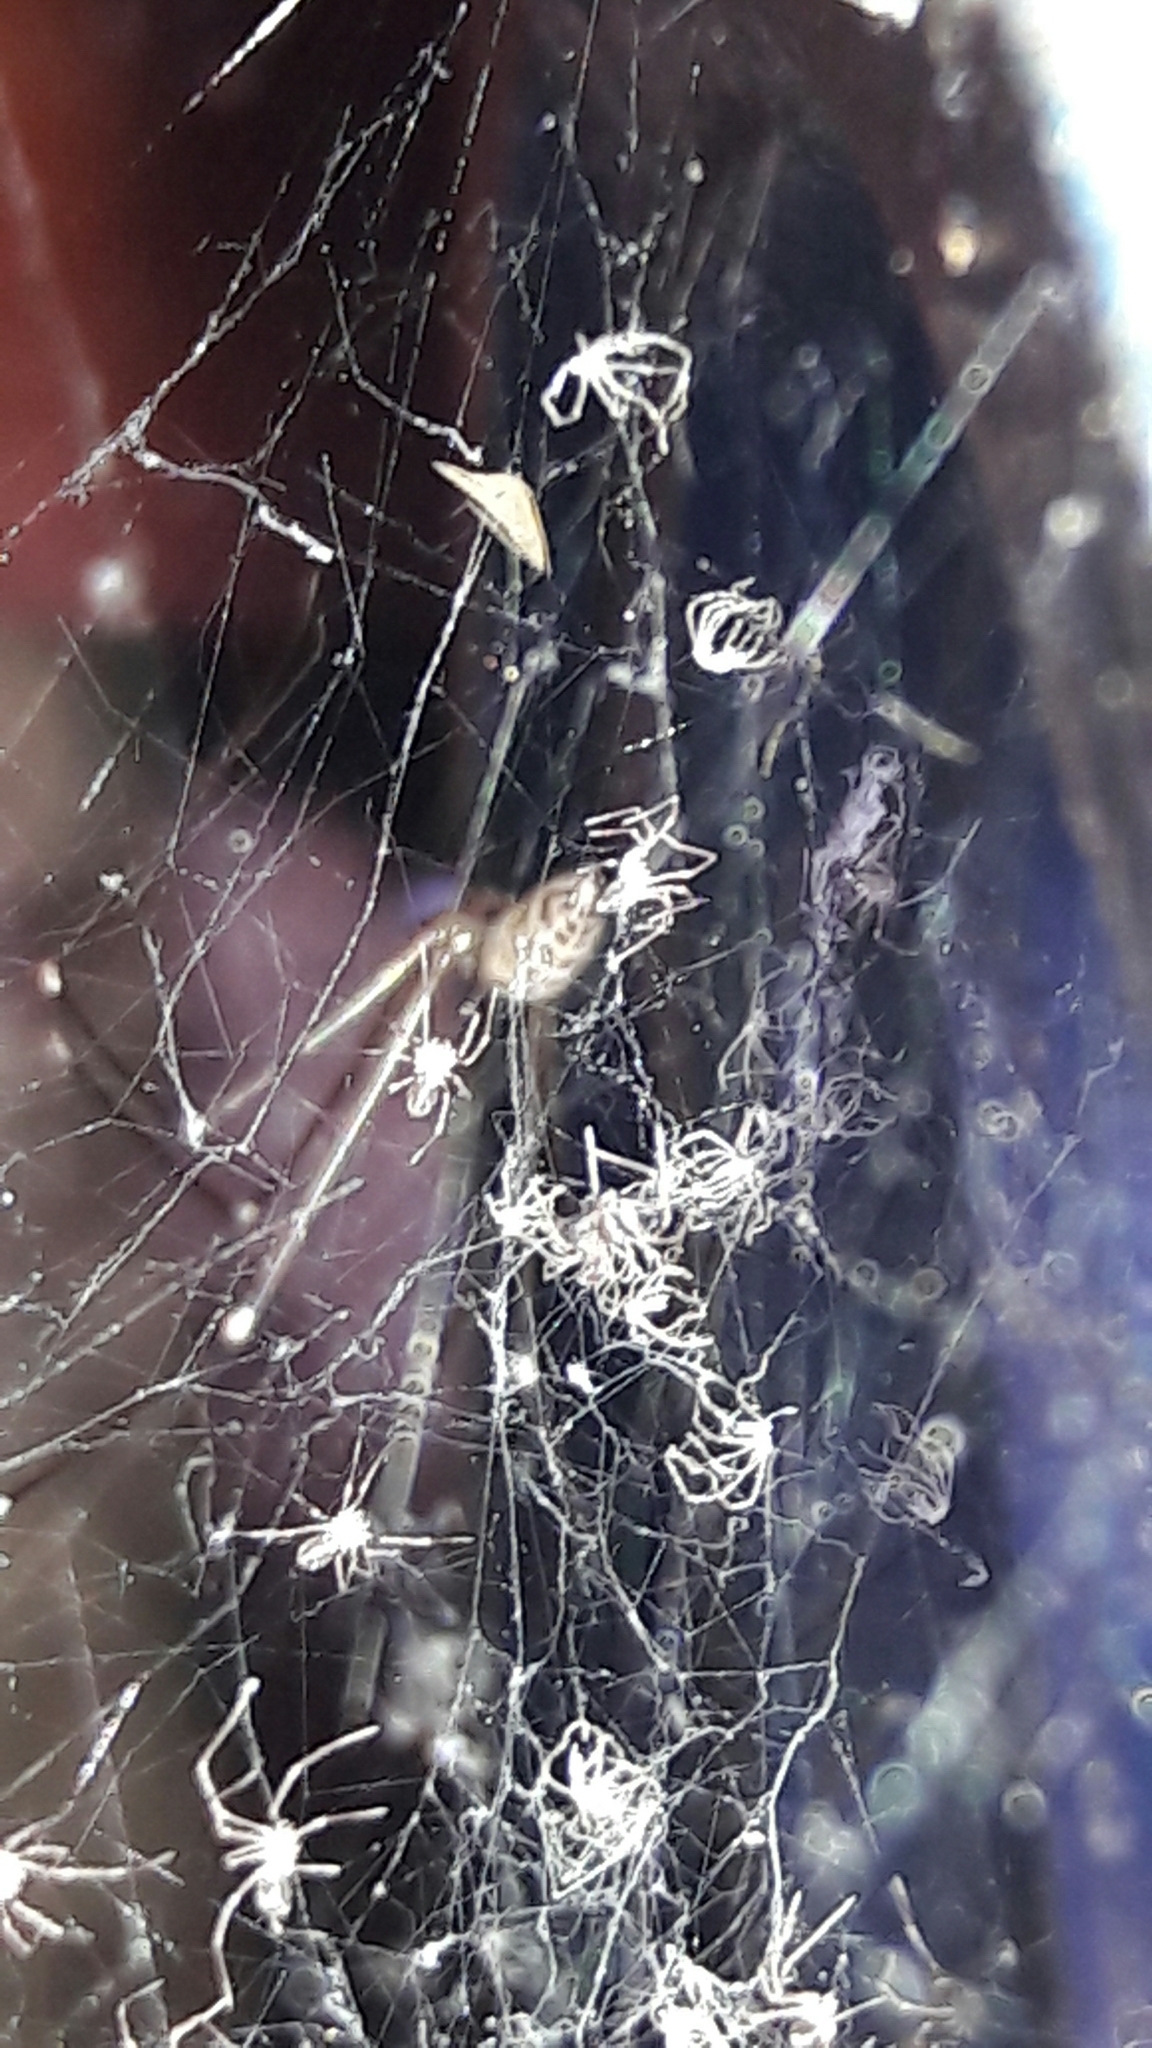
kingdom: Animalia
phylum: Arthropoda
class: Arachnida
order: Araneae
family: Pholcidae
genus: Smeringopus
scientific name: Smeringopus pallidus
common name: Cellar spider
